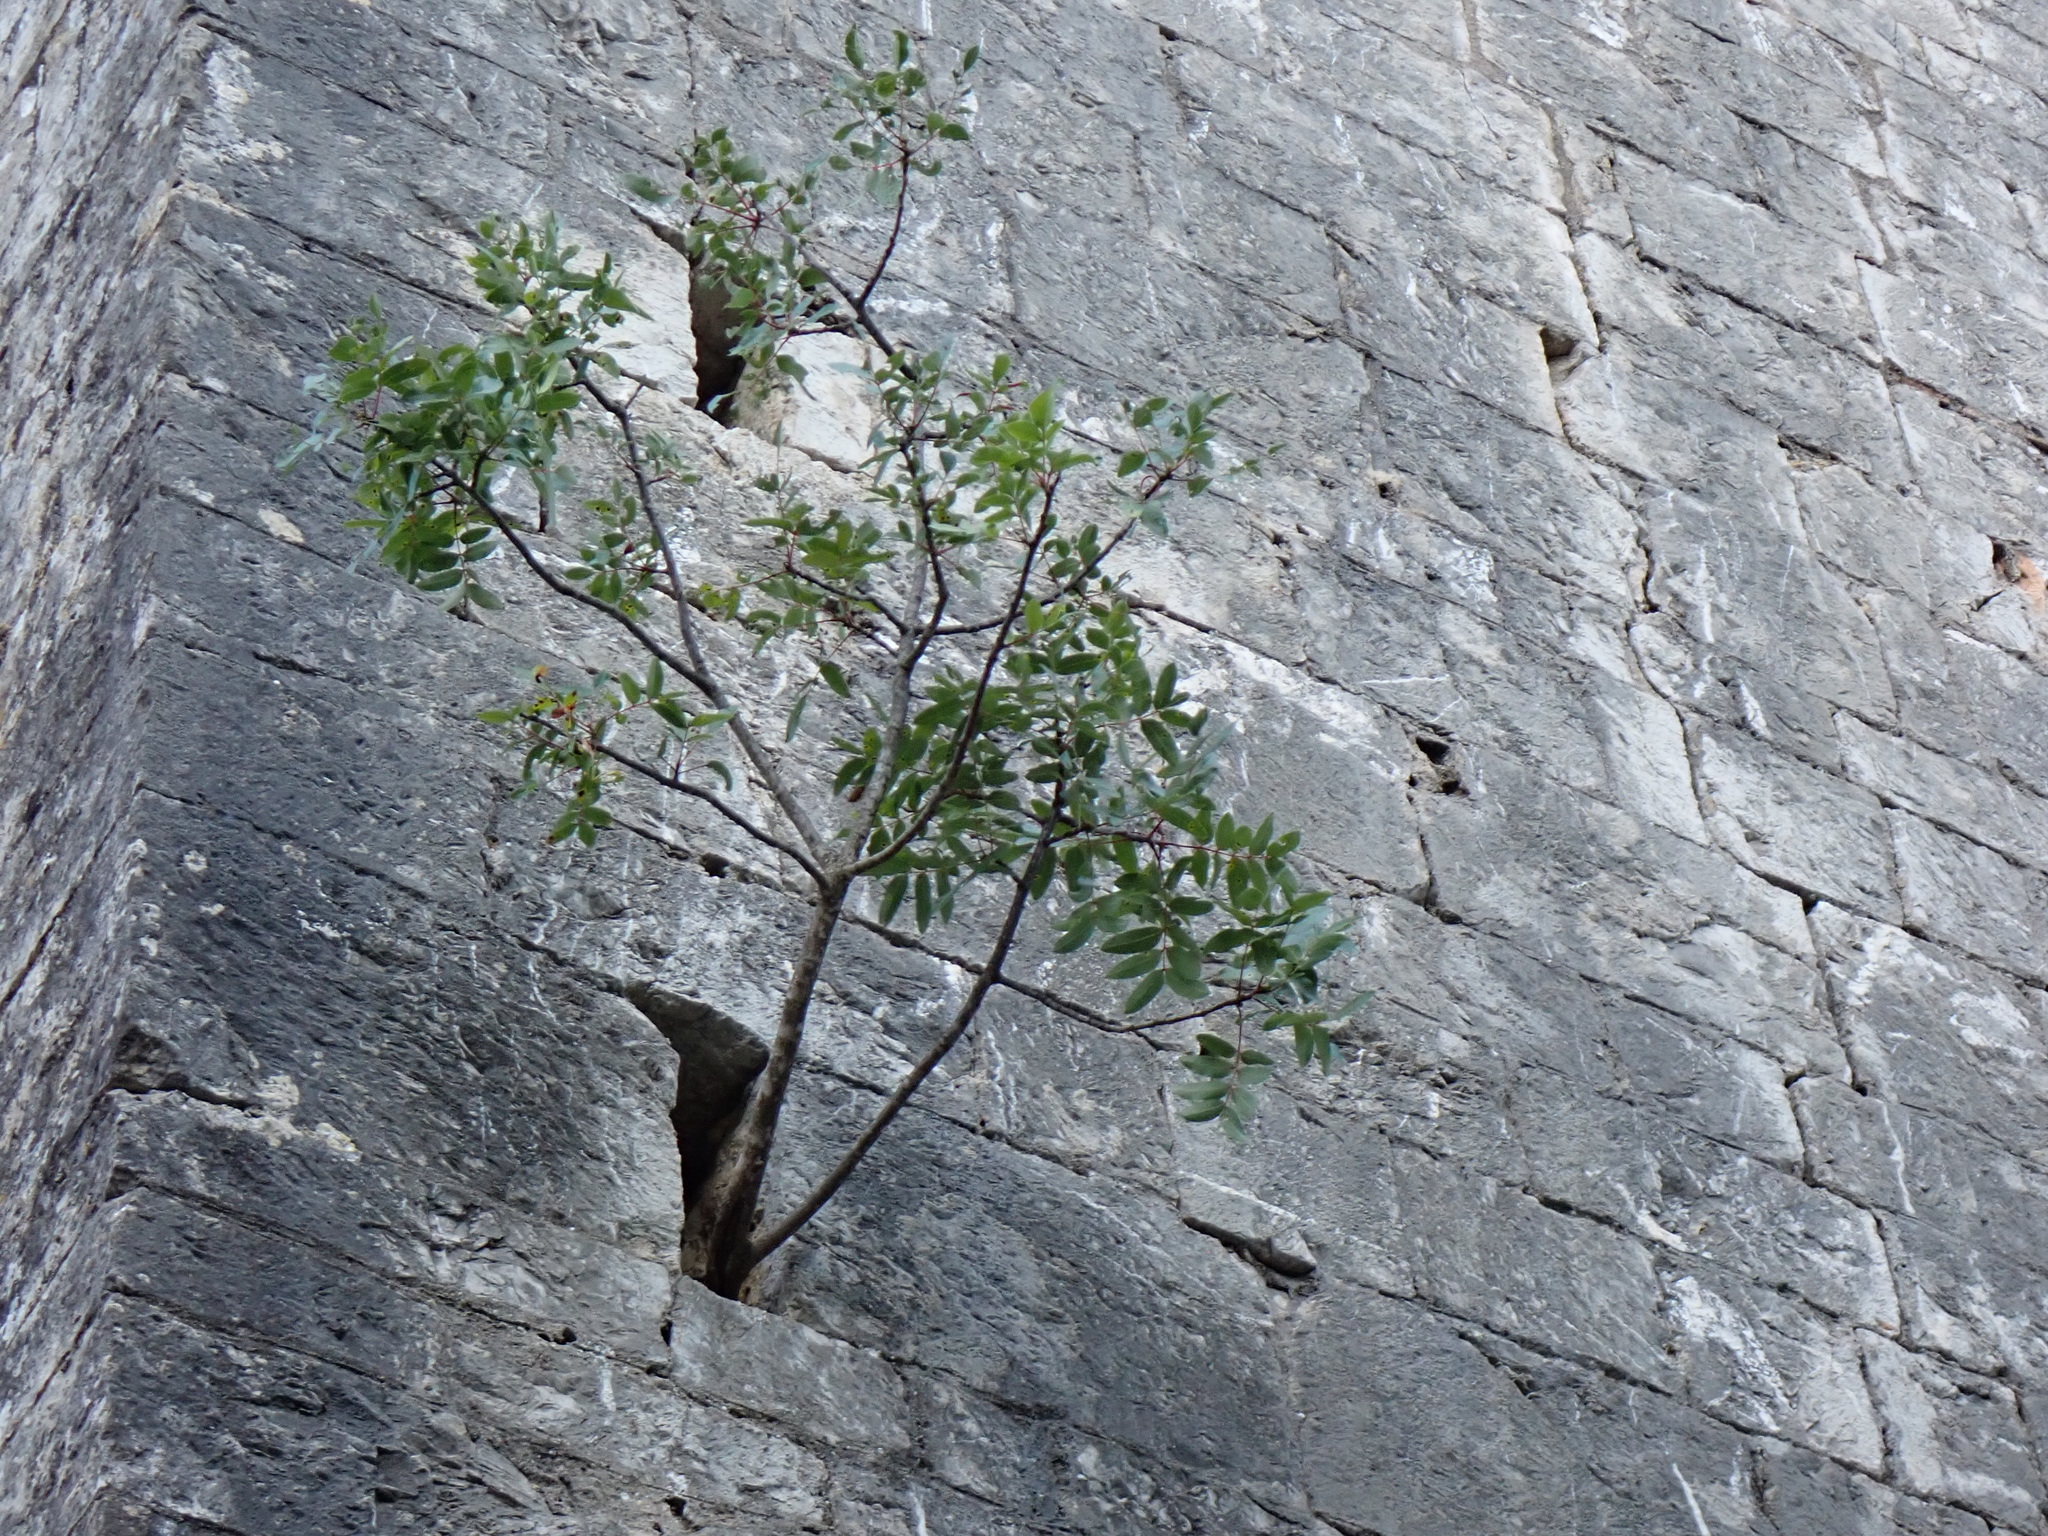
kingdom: Plantae
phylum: Tracheophyta
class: Magnoliopsida
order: Sapindales
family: Anacardiaceae
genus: Pistacia
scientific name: Pistacia terebinthus
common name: Terebinth
